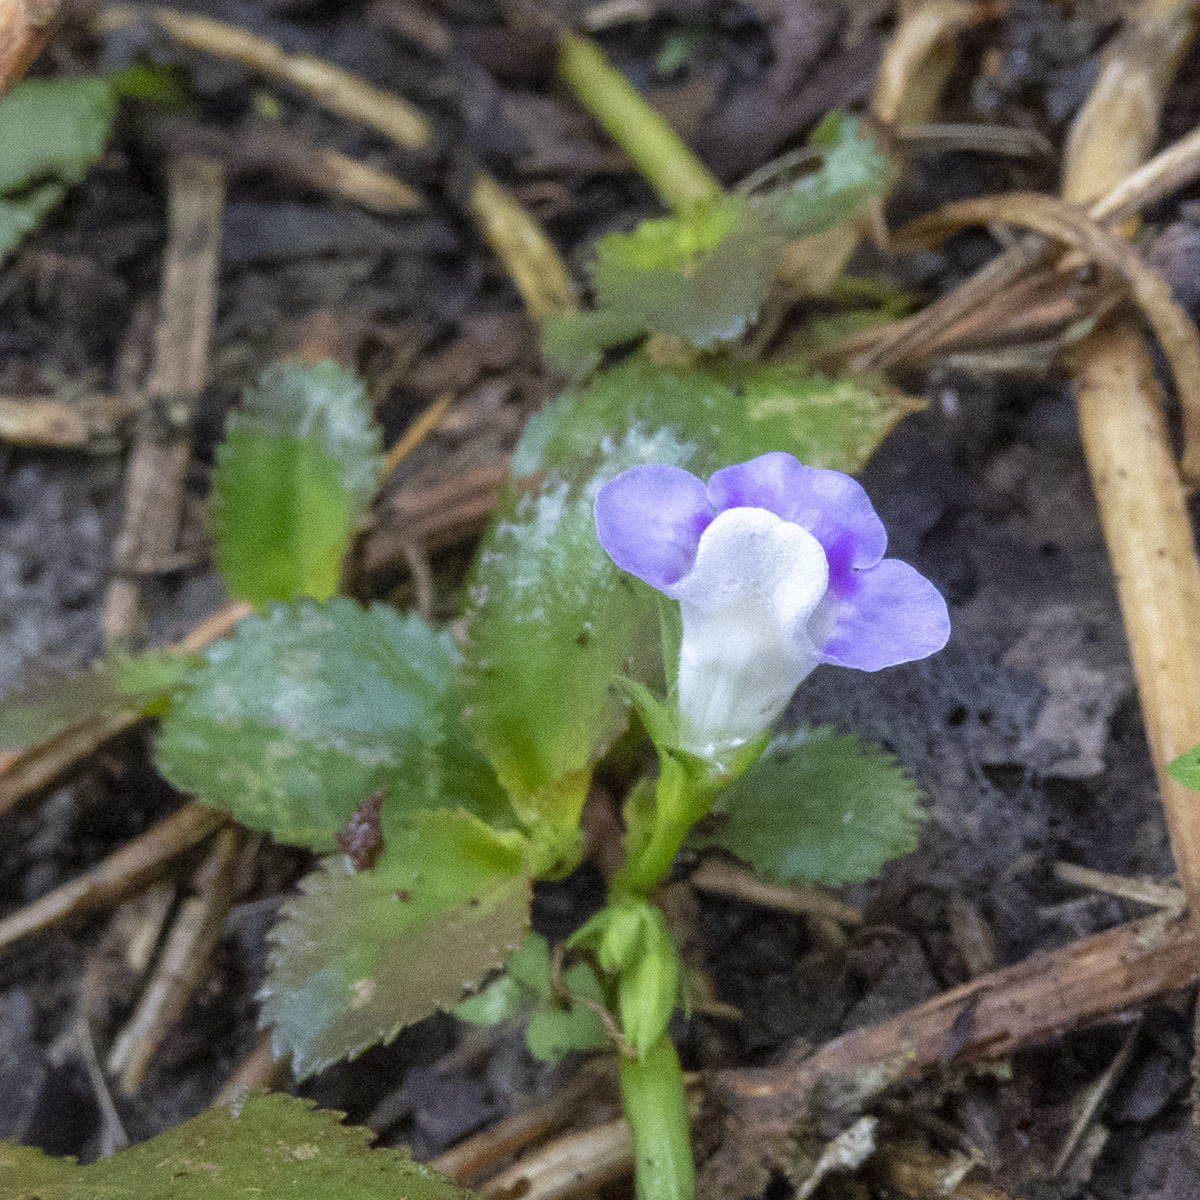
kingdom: Plantae
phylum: Tracheophyta
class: Magnoliopsida
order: Lamiales
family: Linderniaceae
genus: Bonnaya
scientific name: Bonnaya ruelloides
